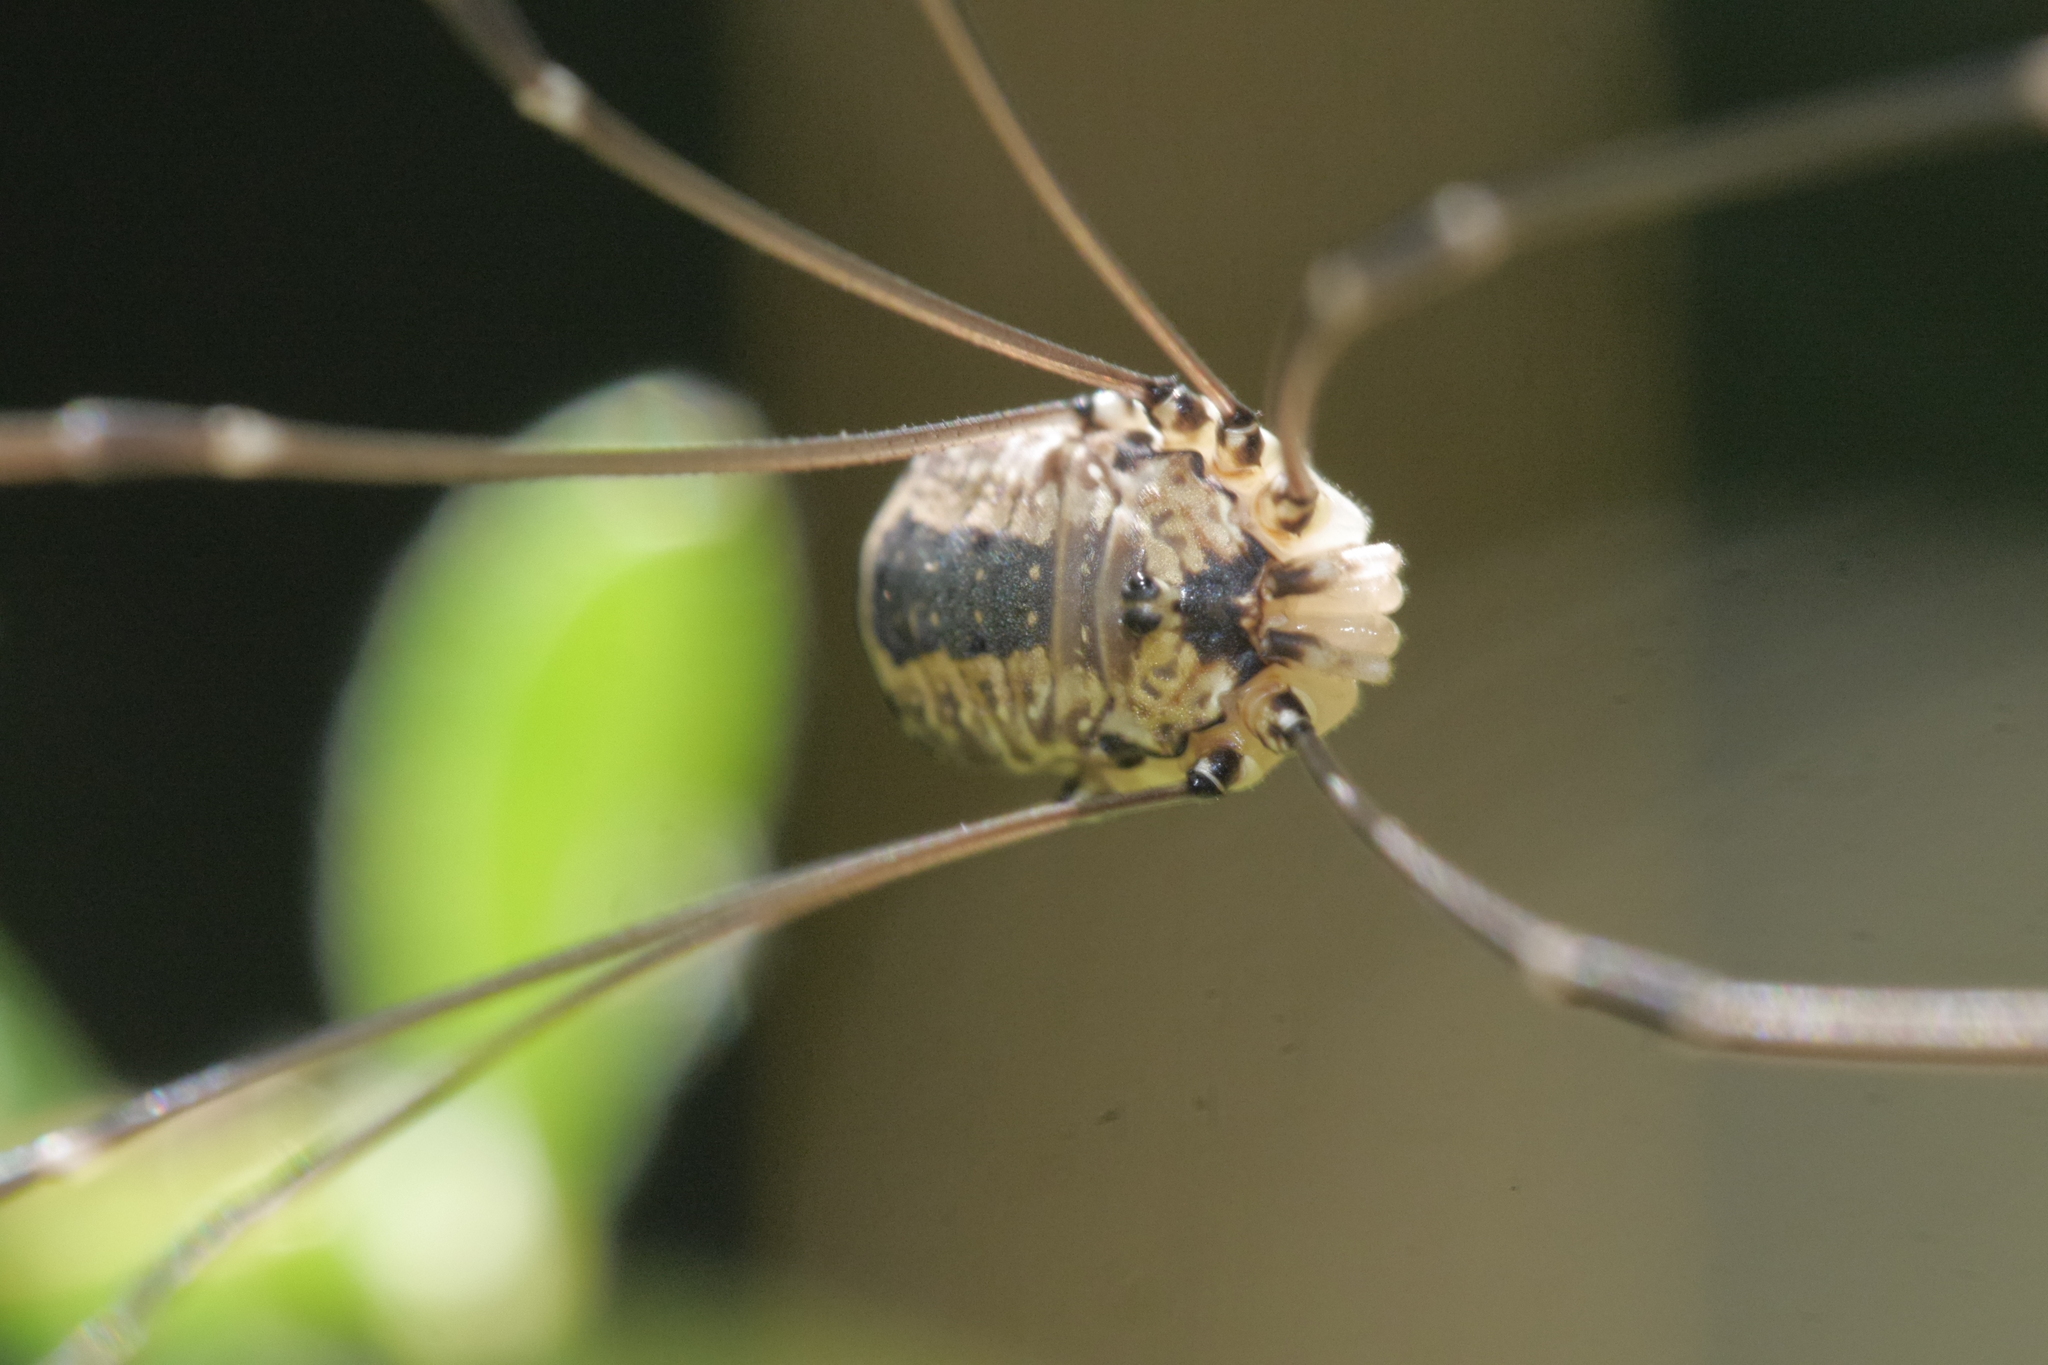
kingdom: Animalia
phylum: Arthropoda
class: Arachnida
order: Opiliones
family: Sclerosomatidae
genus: Leiobunum
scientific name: Leiobunum rotundum
